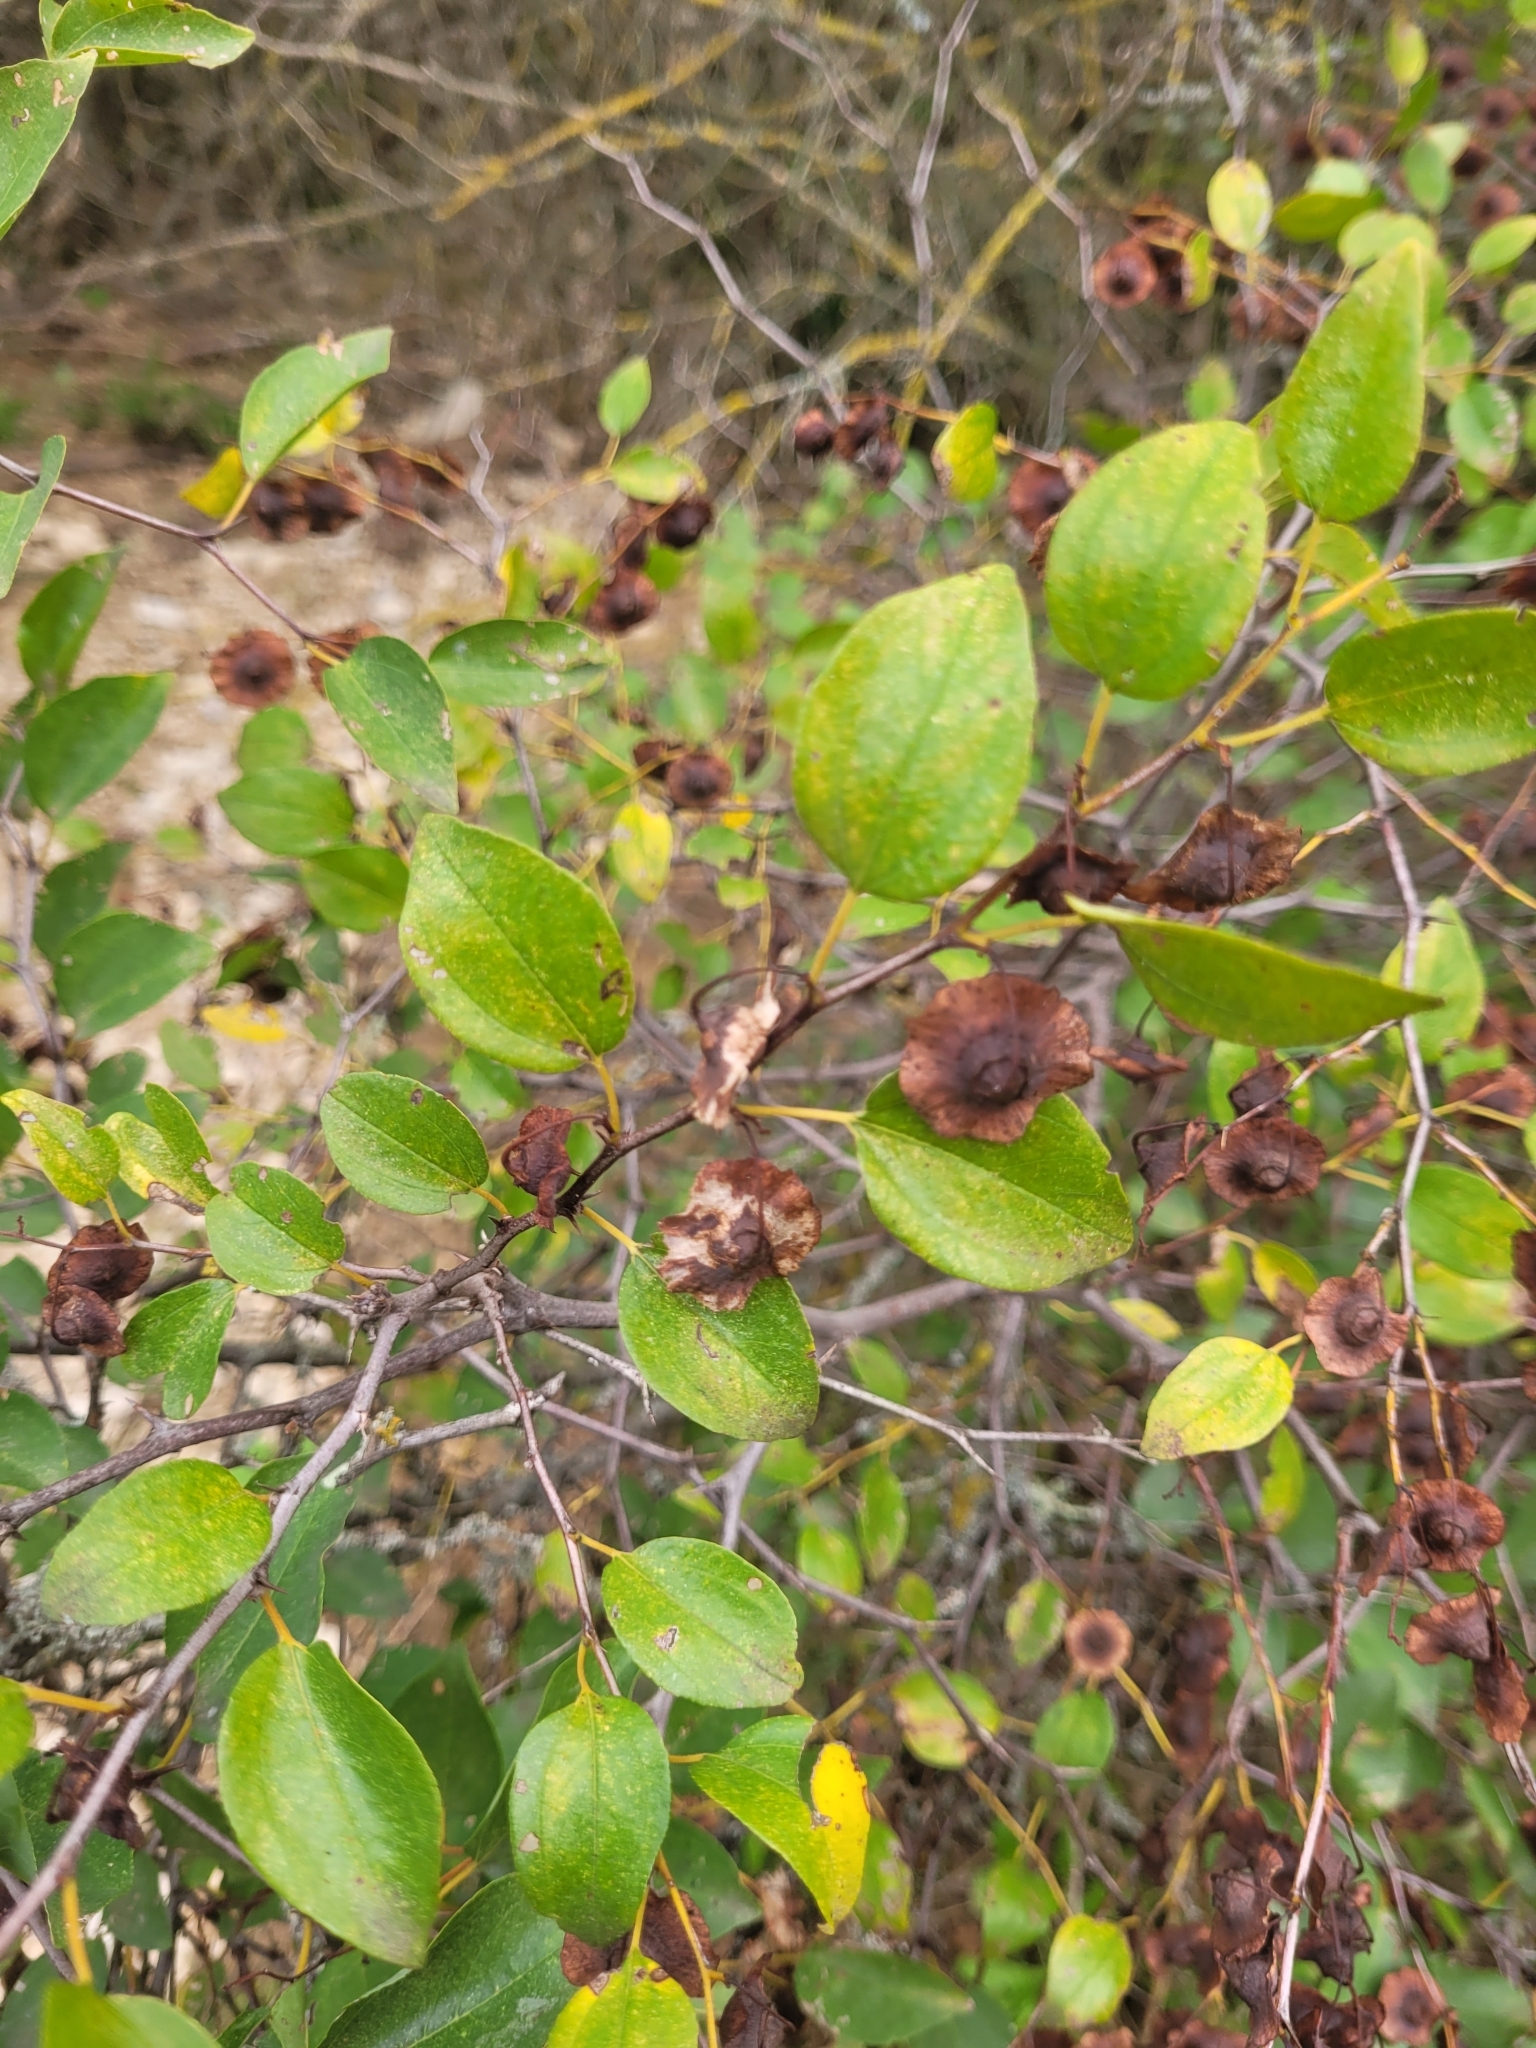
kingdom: Plantae
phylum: Tracheophyta
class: Magnoliopsida
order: Rosales
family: Rhamnaceae
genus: Paliurus
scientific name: Paliurus spina-christi
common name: Jeruselem thorn
